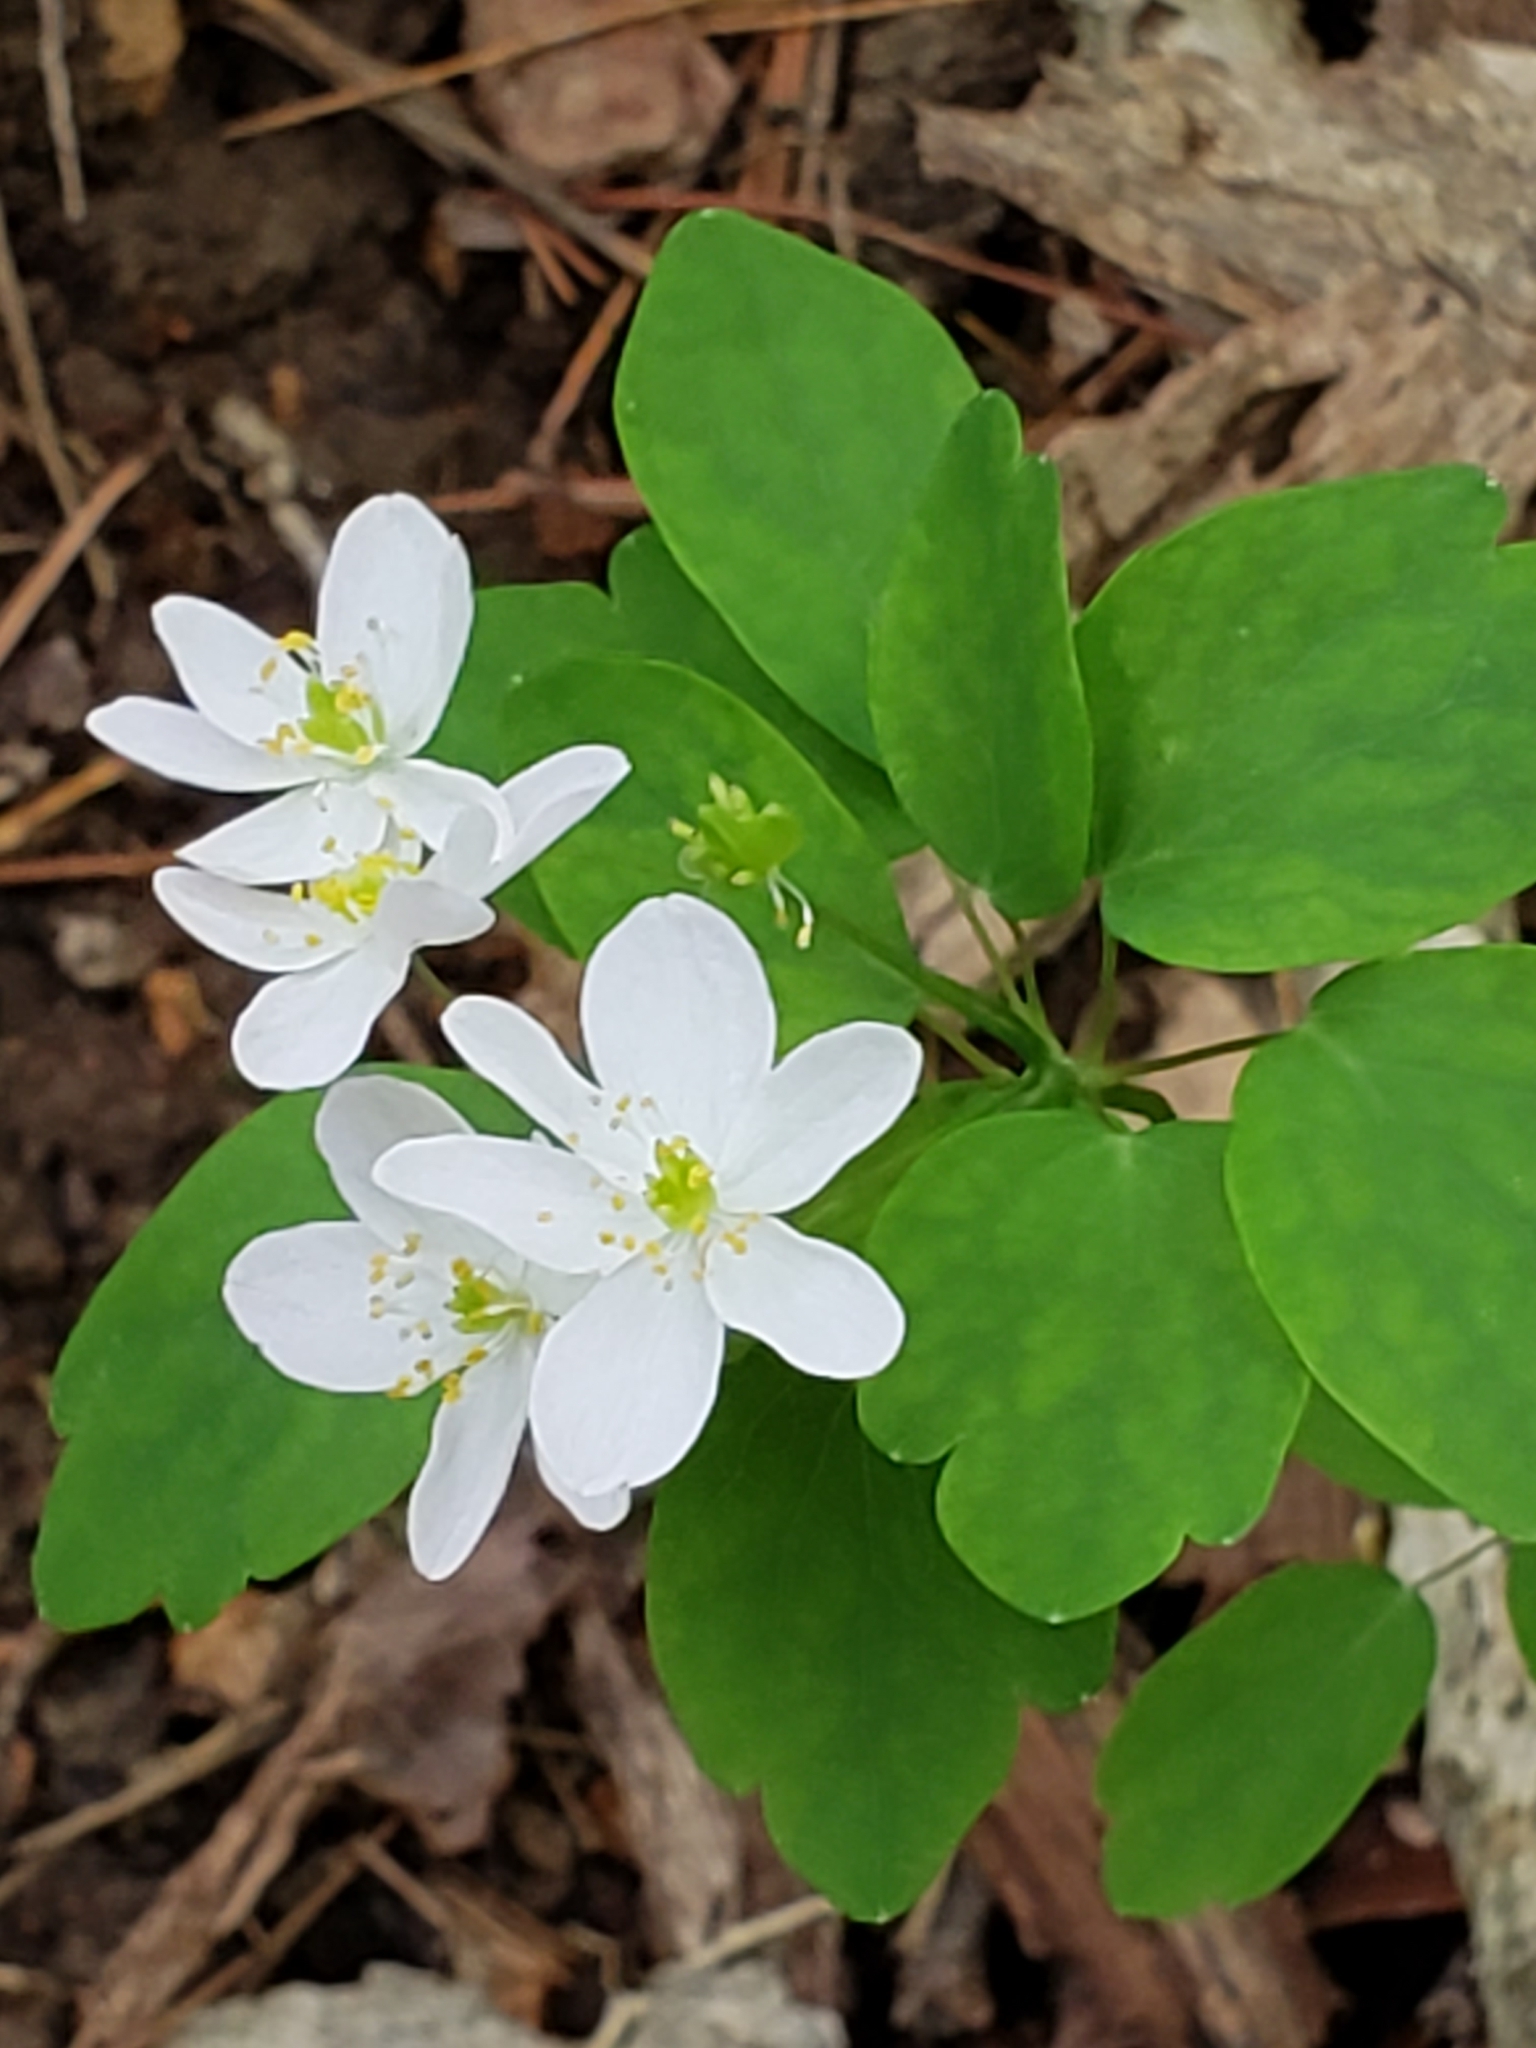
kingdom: Plantae
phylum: Tracheophyta
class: Magnoliopsida
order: Ranunculales
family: Ranunculaceae
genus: Thalictrum
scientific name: Thalictrum thalictroides
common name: Rue-anemone
